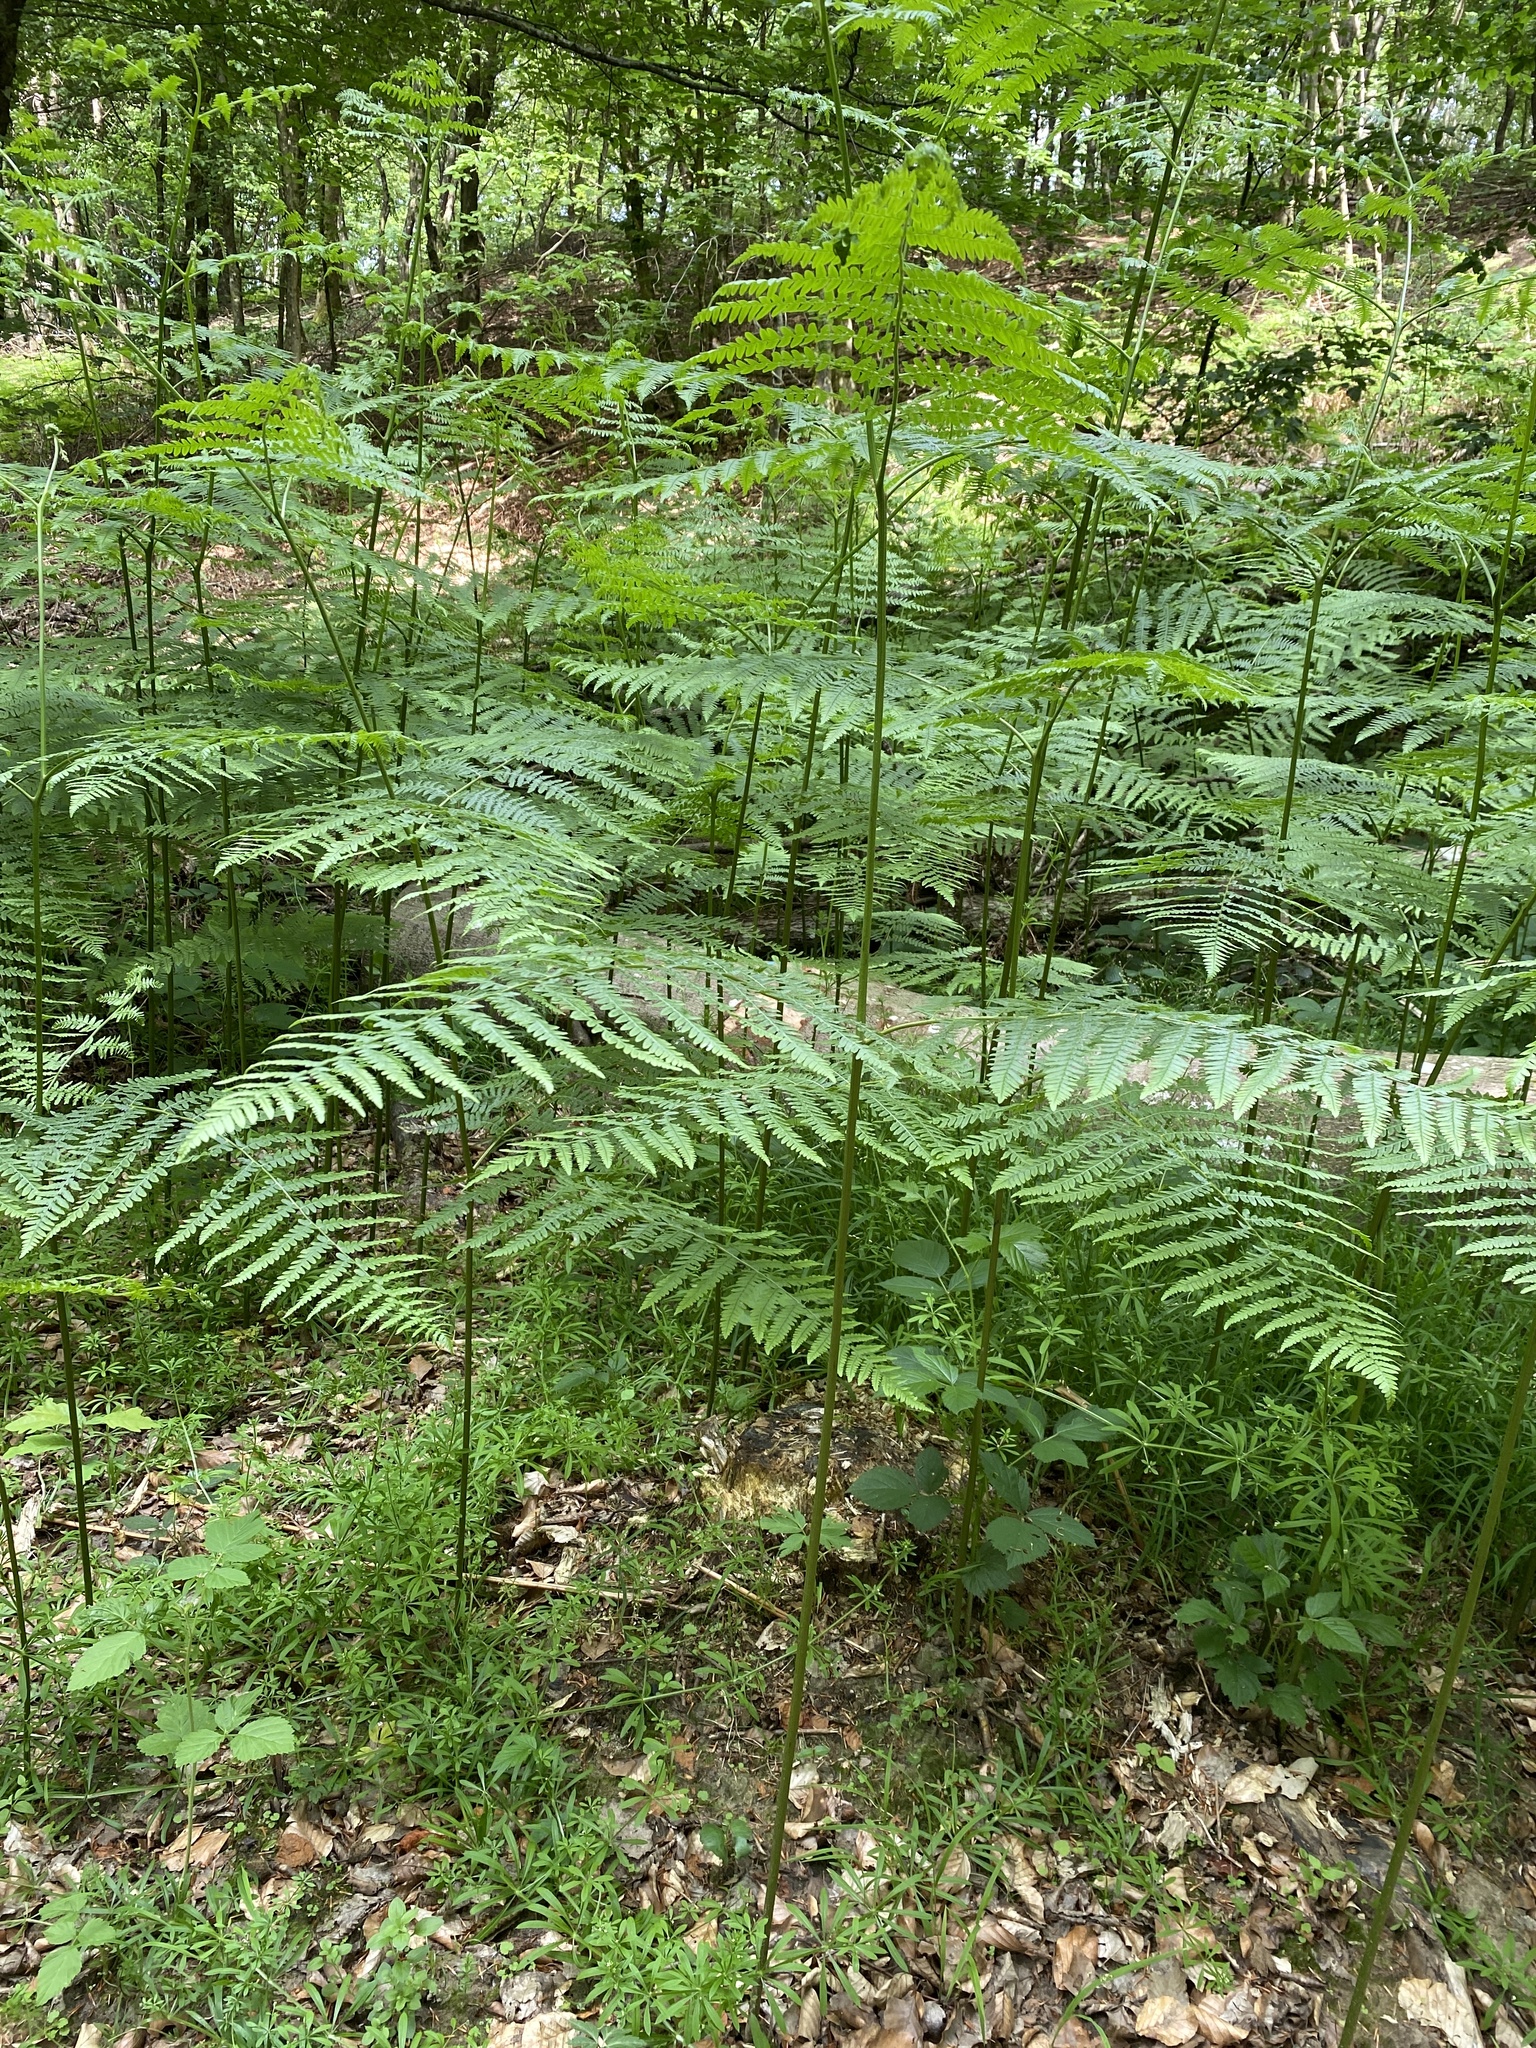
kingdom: Plantae
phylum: Tracheophyta
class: Polypodiopsida
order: Polypodiales
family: Dennstaedtiaceae
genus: Pteridium
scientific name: Pteridium aquilinum
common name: Bracken
